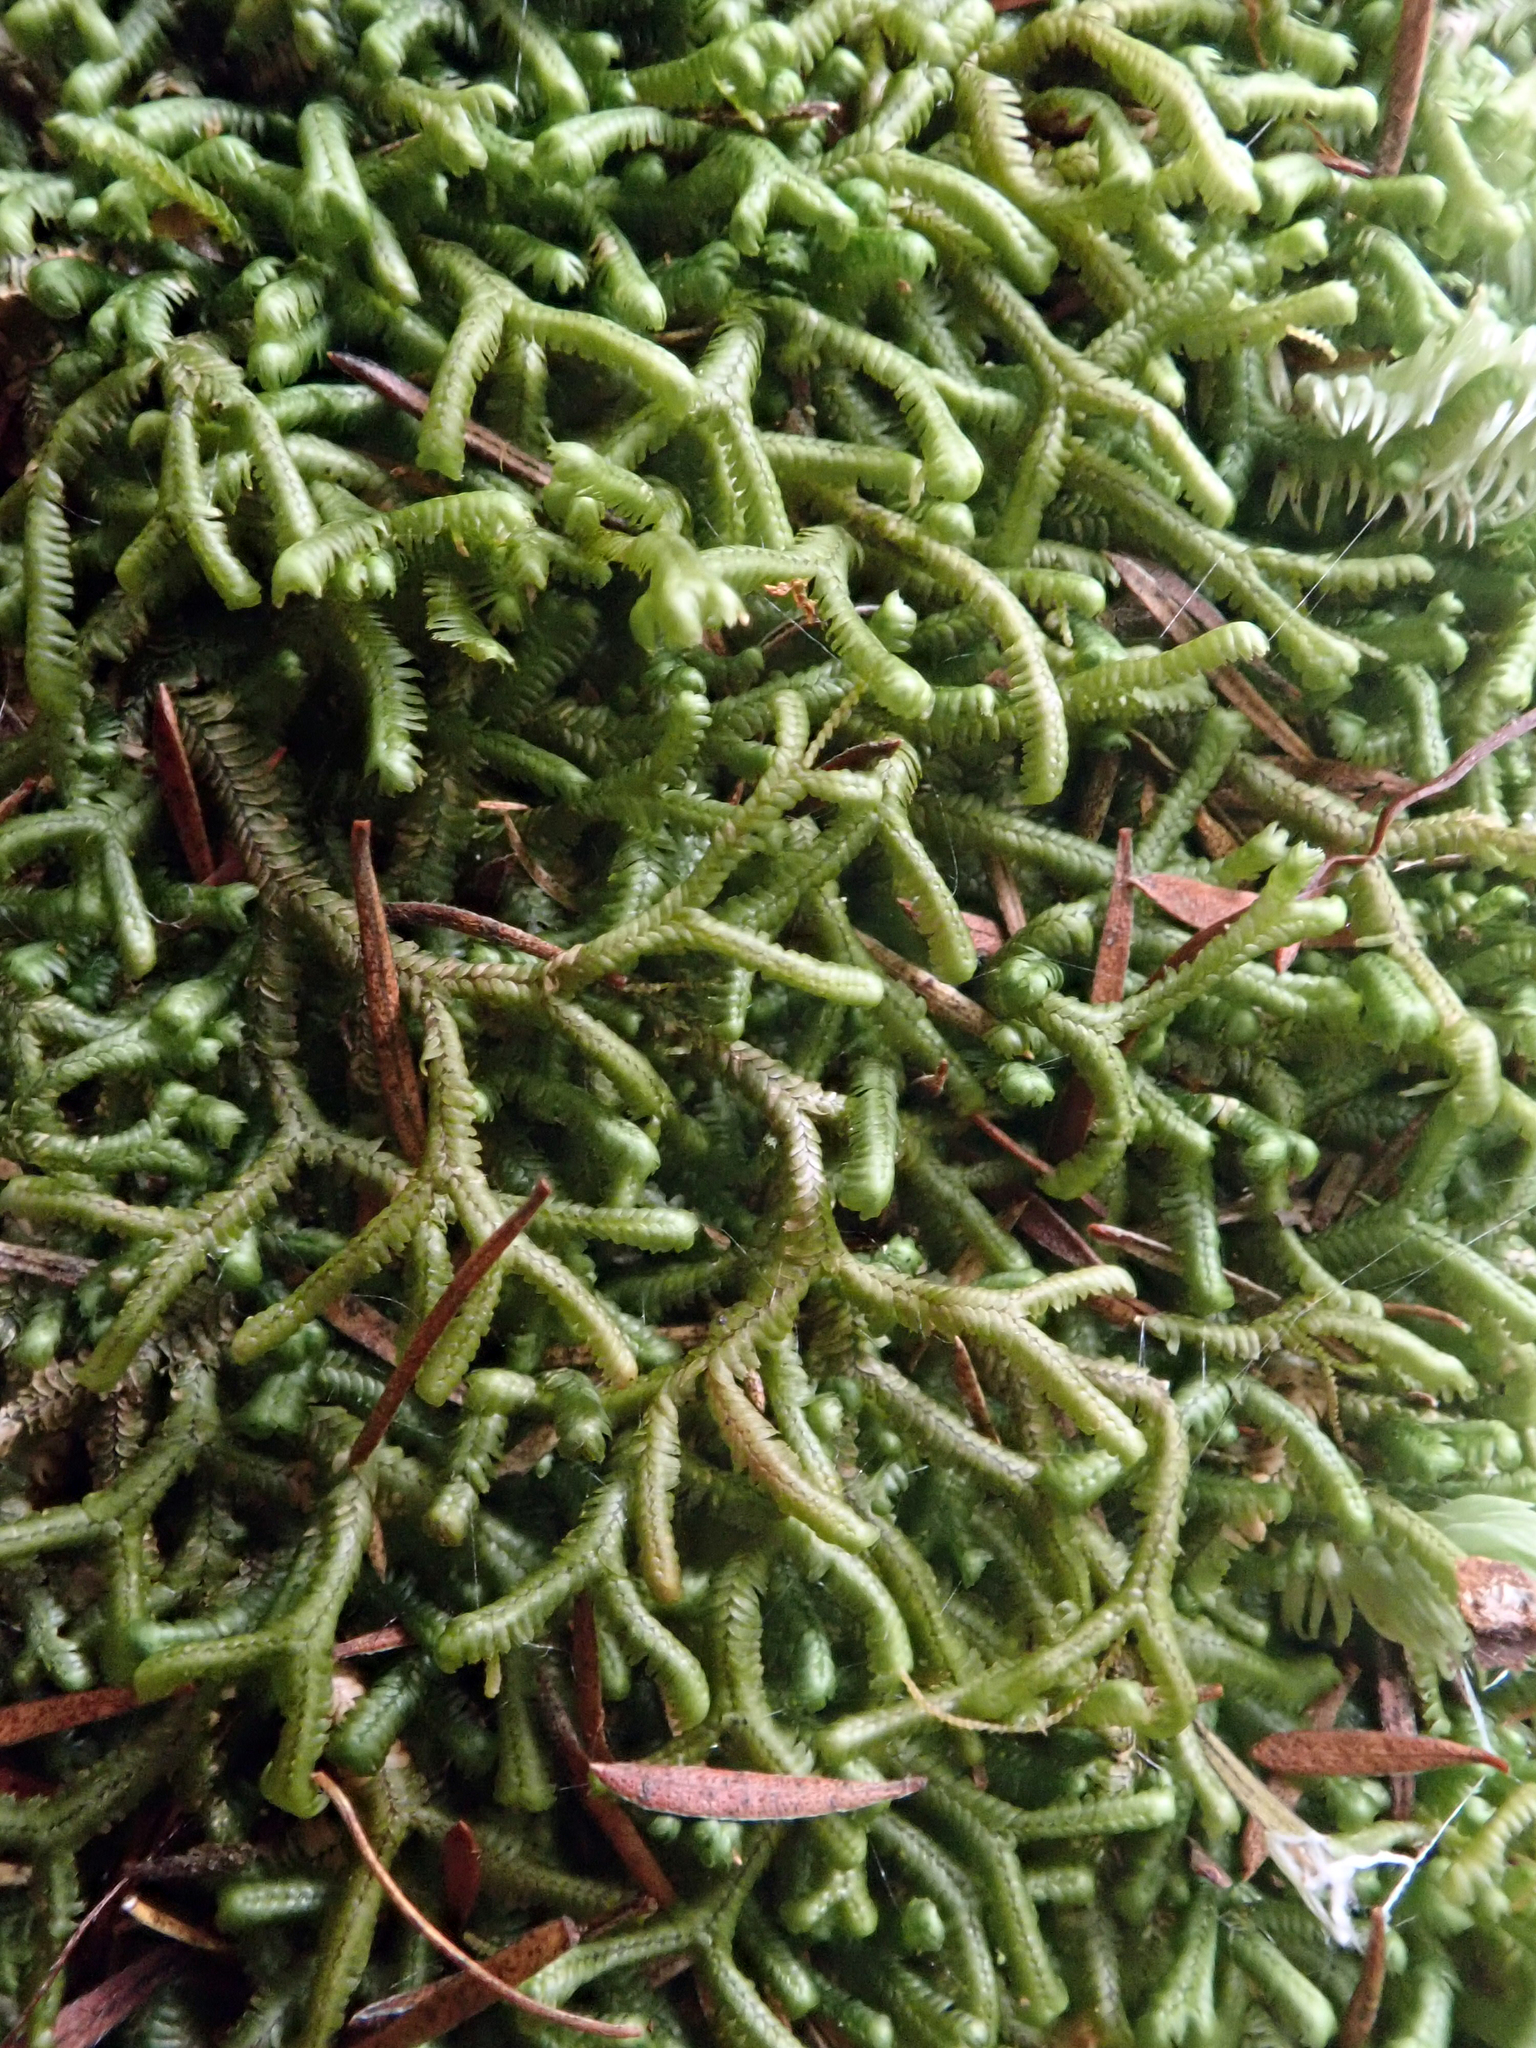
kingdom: Plantae
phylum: Marchantiophyta
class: Jungermanniopsida
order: Jungermanniales
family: Lepidoziaceae
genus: Bazzania
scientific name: Bazzania adnexa
